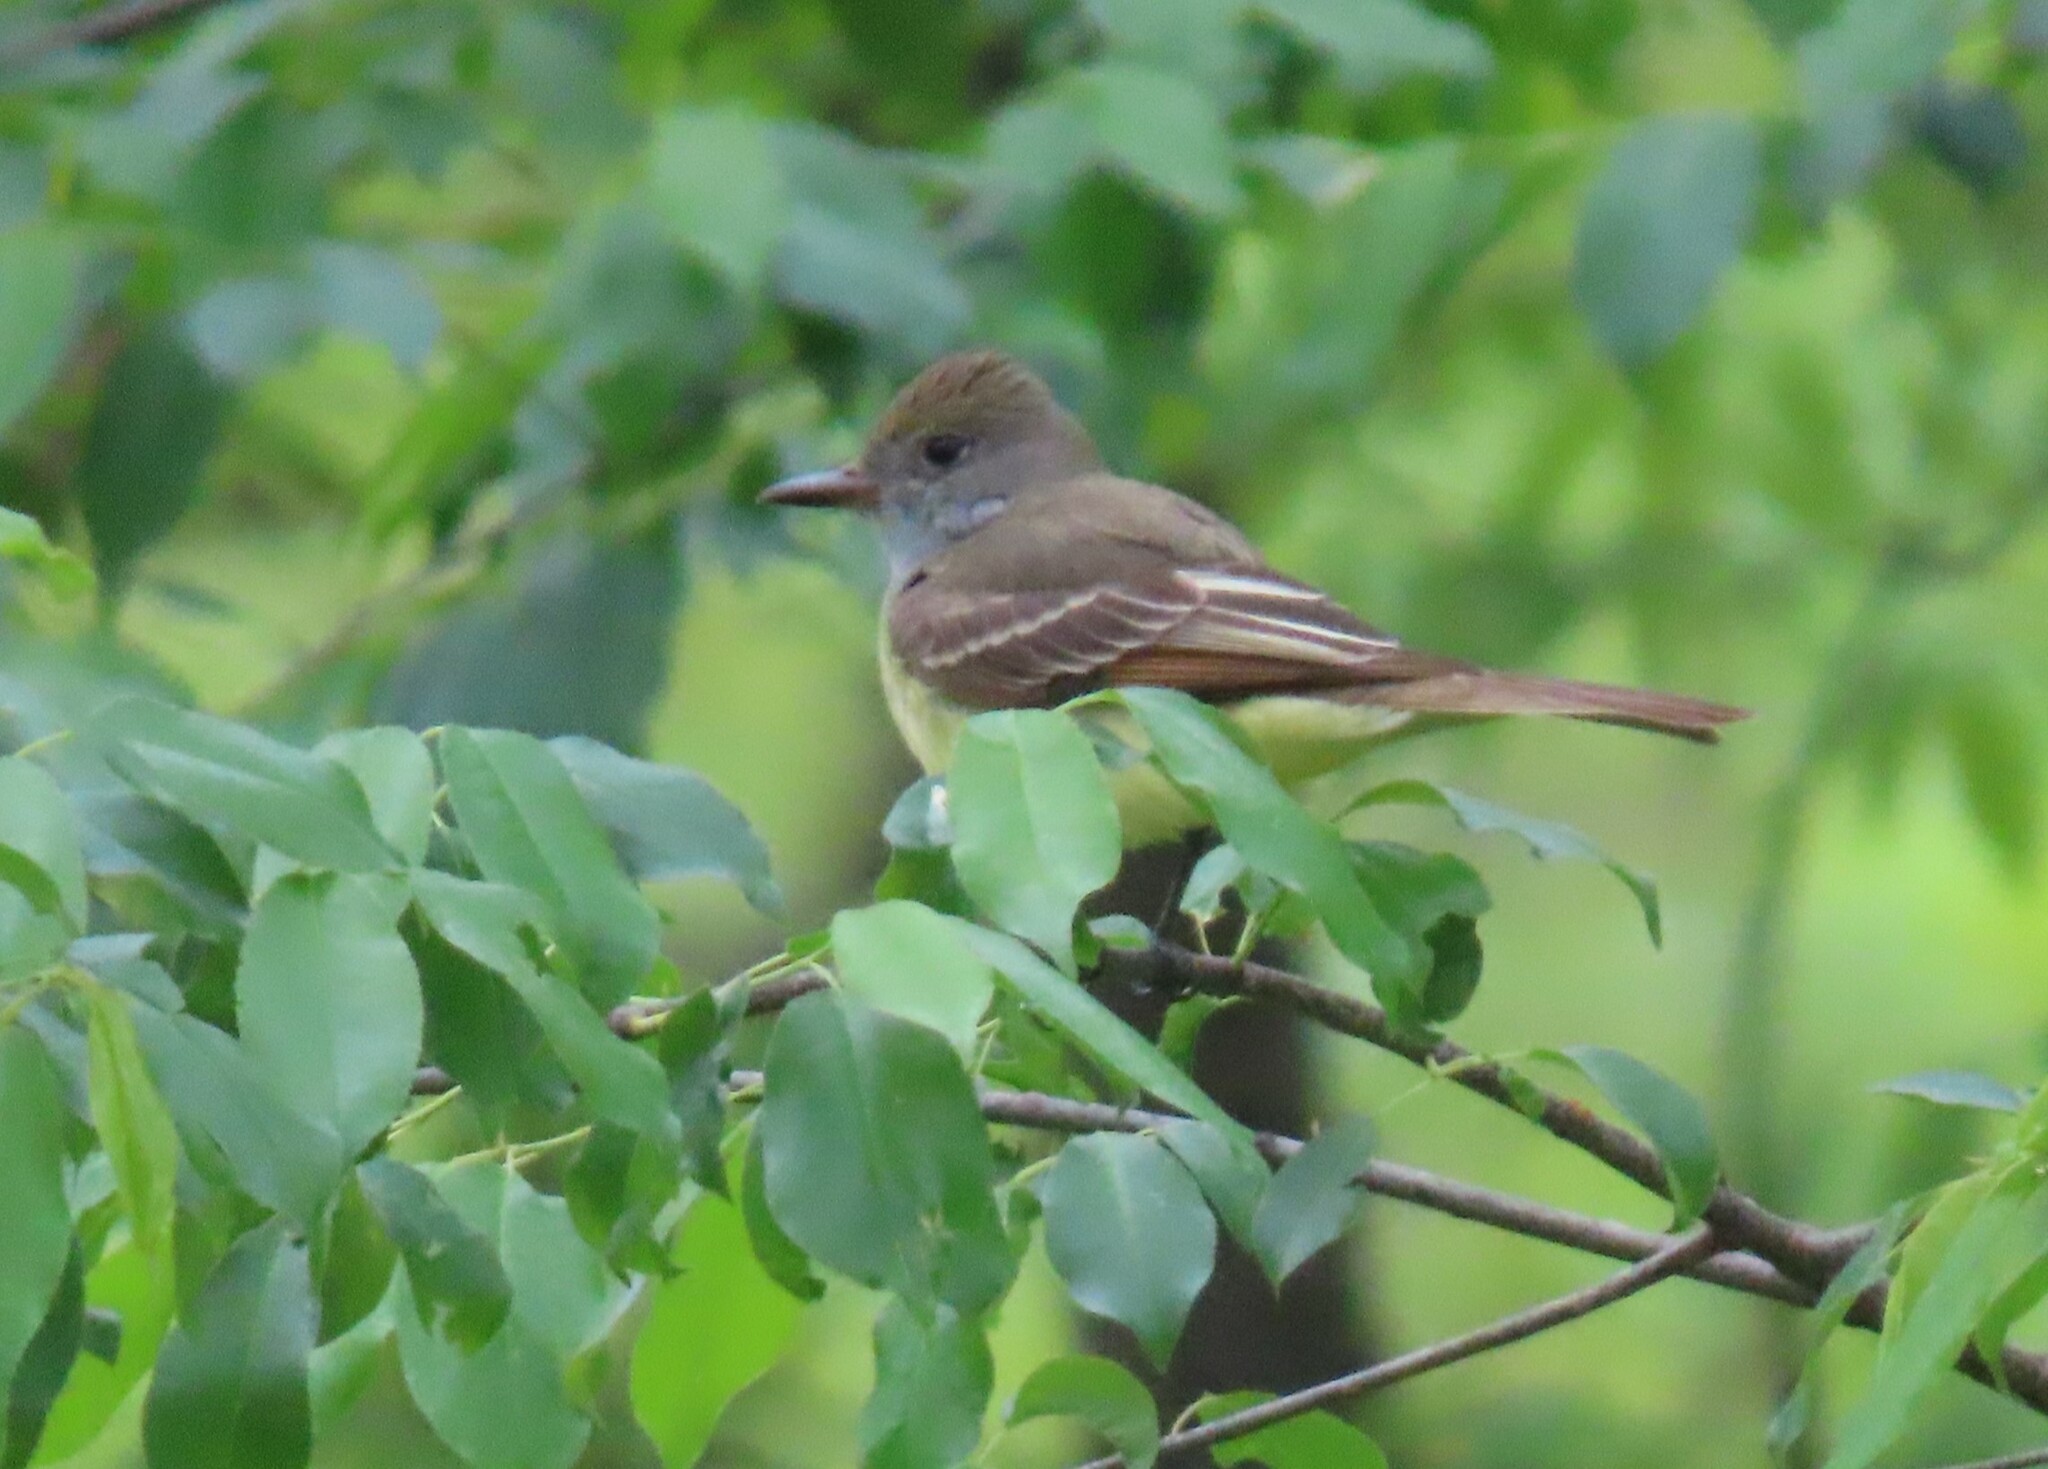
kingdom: Animalia
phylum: Chordata
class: Aves
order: Passeriformes
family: Tyrannidae
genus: Myiarchus
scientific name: Myiarchus crinitus
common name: Great crested flycatcher
